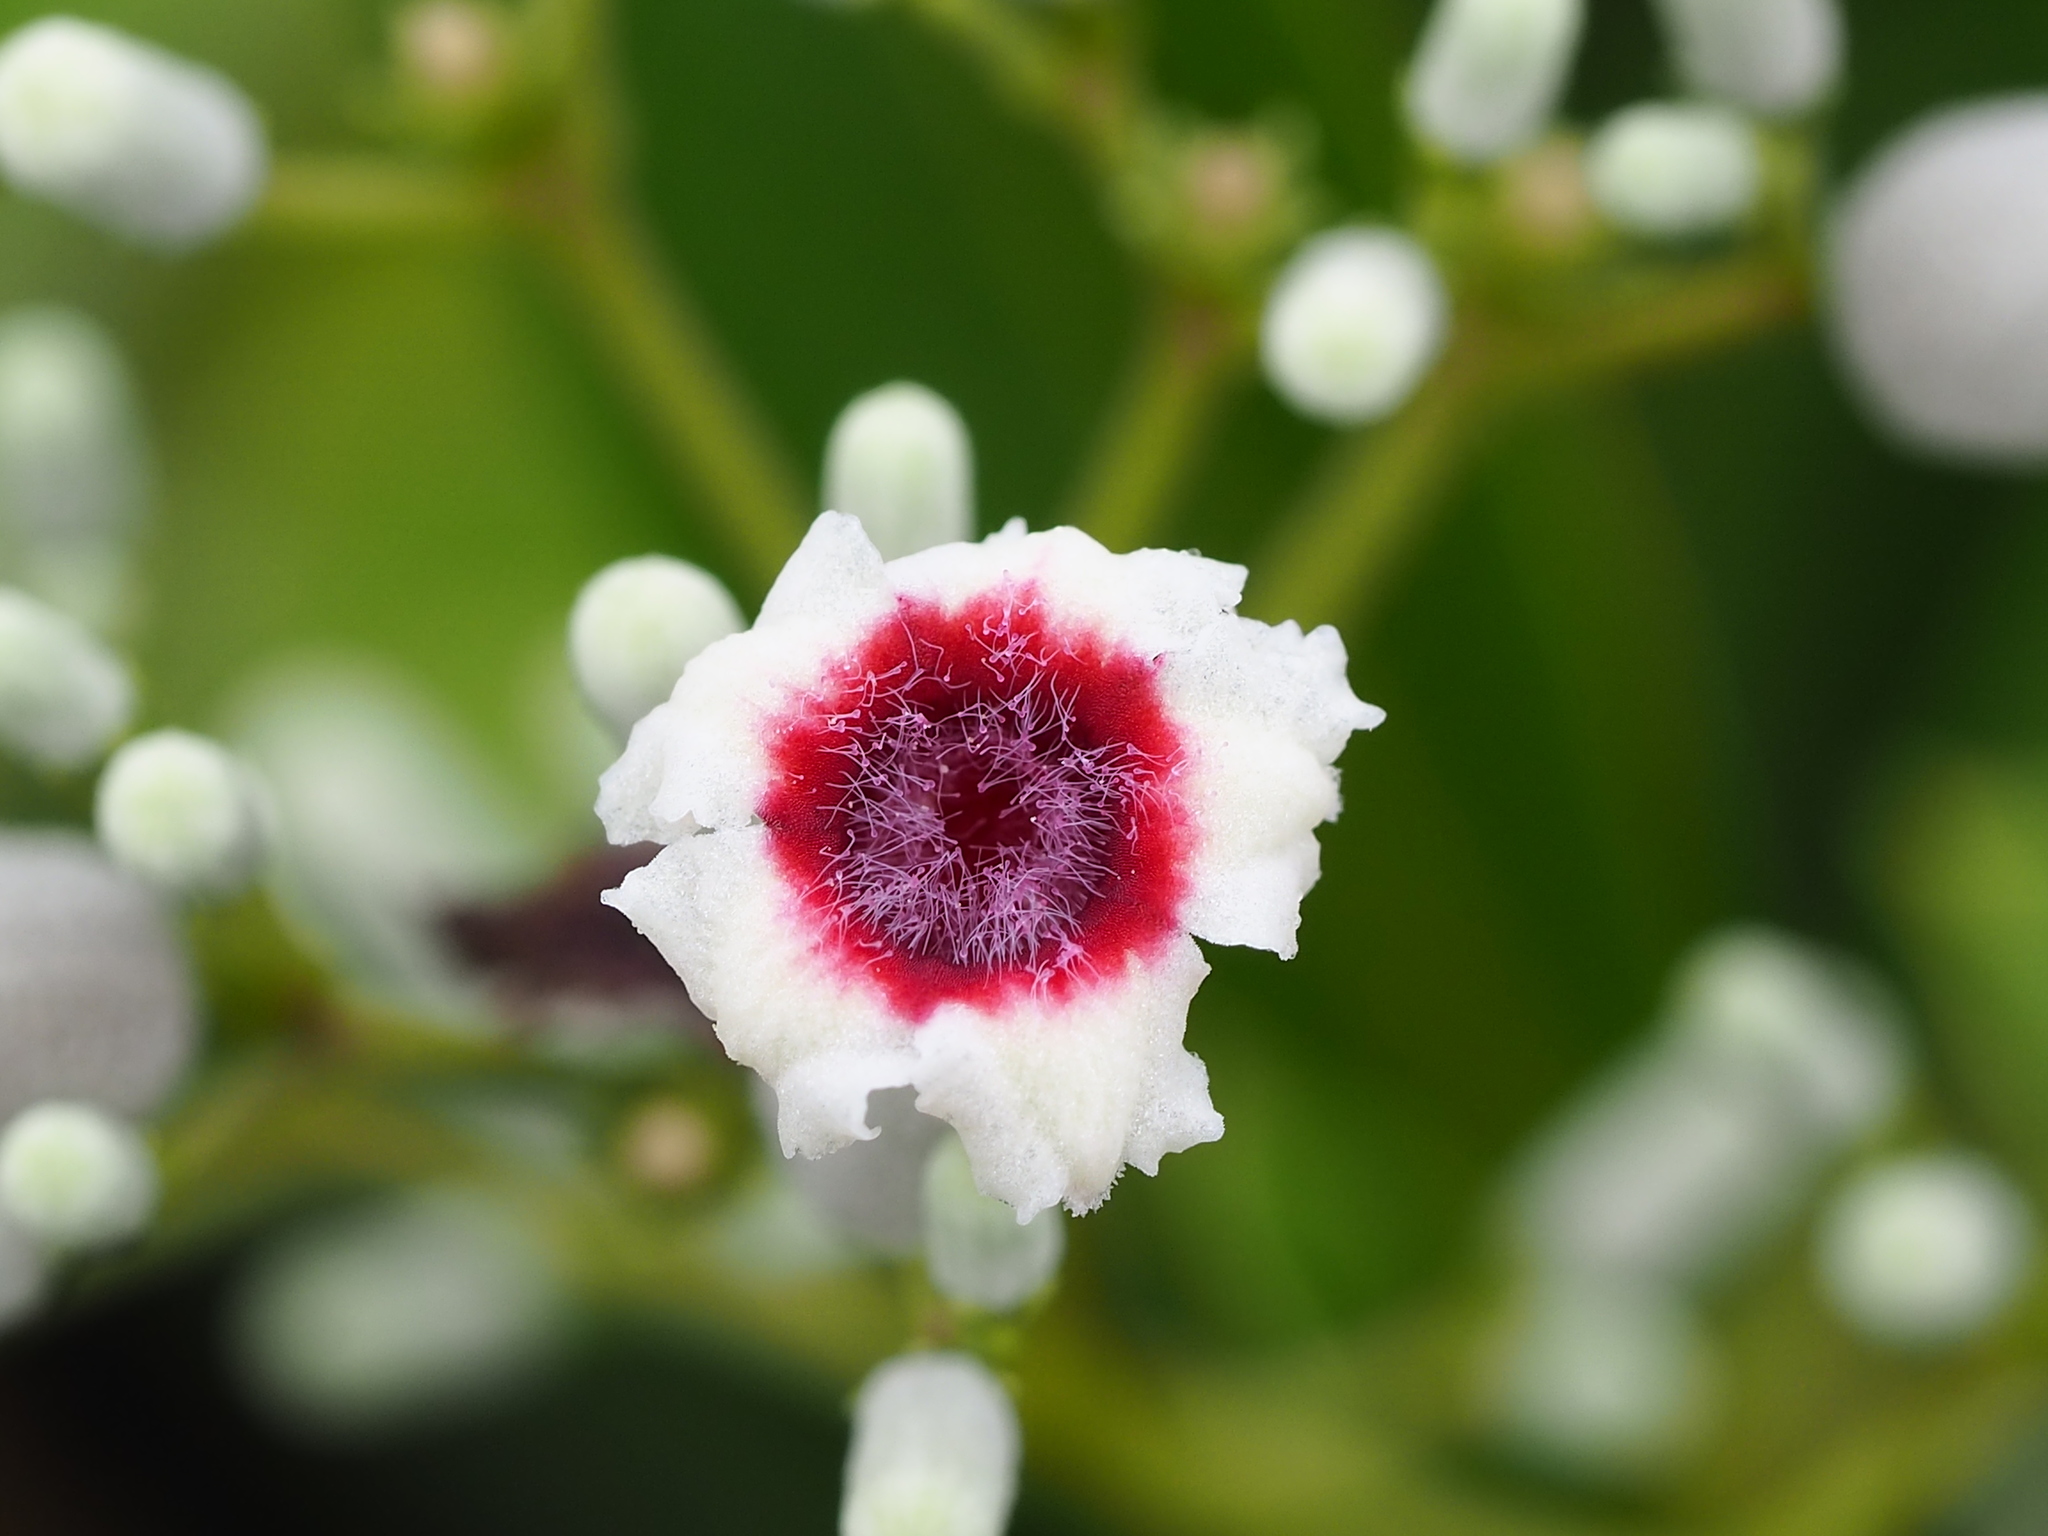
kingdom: Plantae
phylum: Tracheophyta
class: Magnoliopsida
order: Gentianales
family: Rubiaceae
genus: Paederia
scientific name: Paederia foetida
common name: Stinkvine
